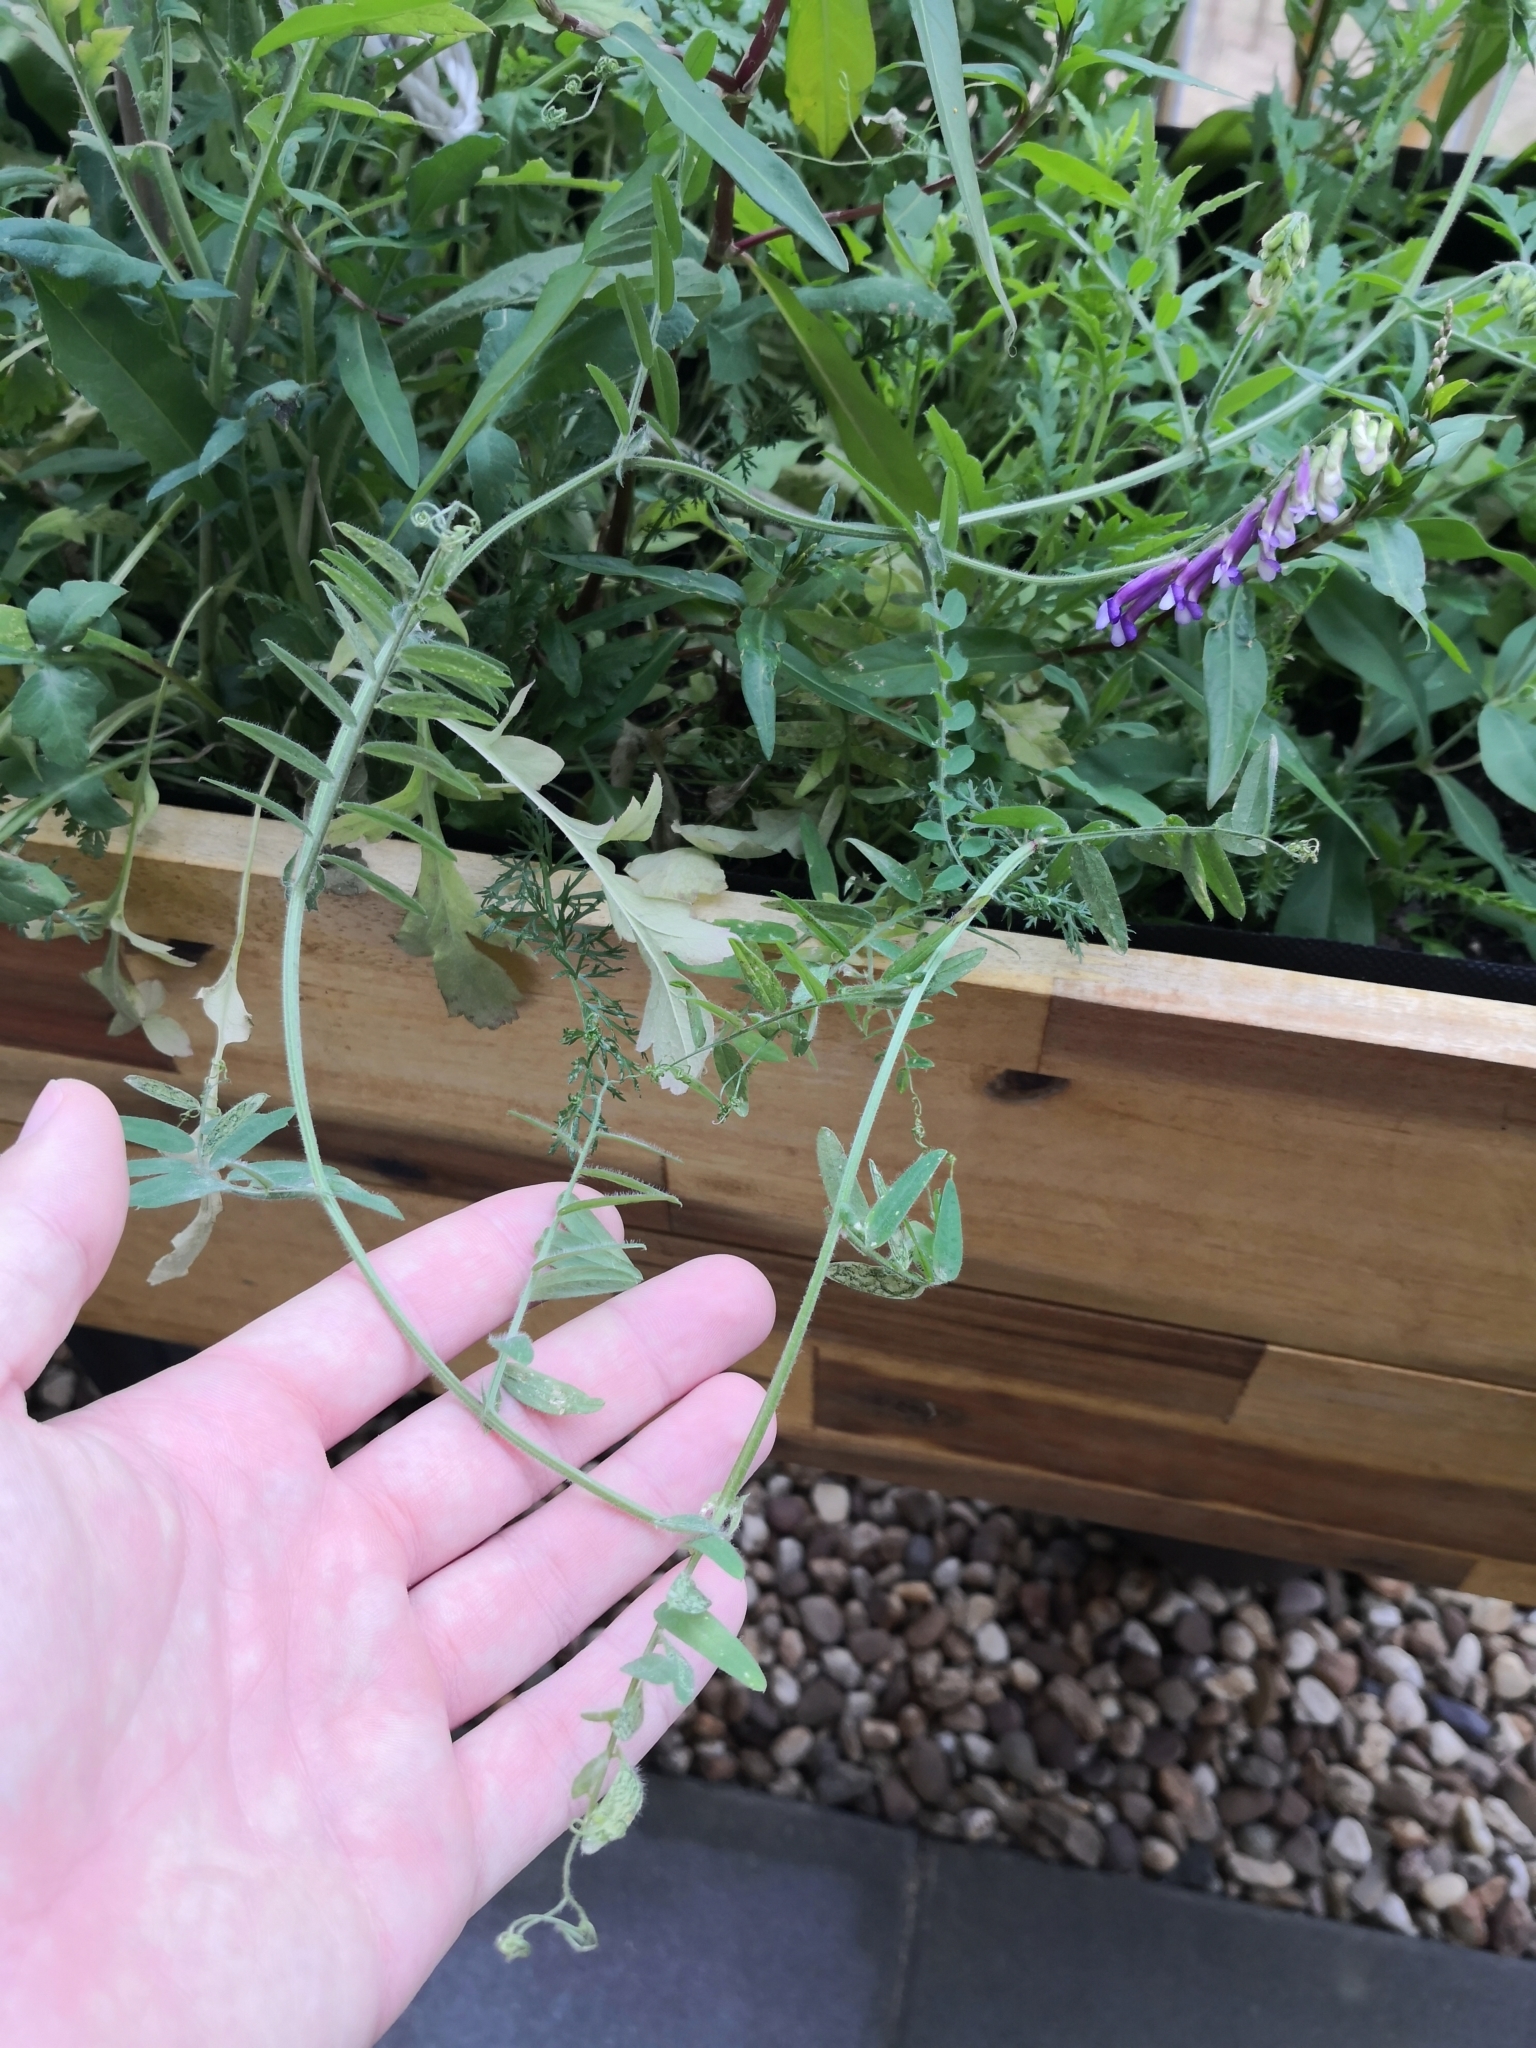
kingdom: Plantae
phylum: Tracheophyta
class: Magnoliopsida
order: Fabales
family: Fabaceae
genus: Vicia
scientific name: Vicia villosa
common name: Fodder vetch
